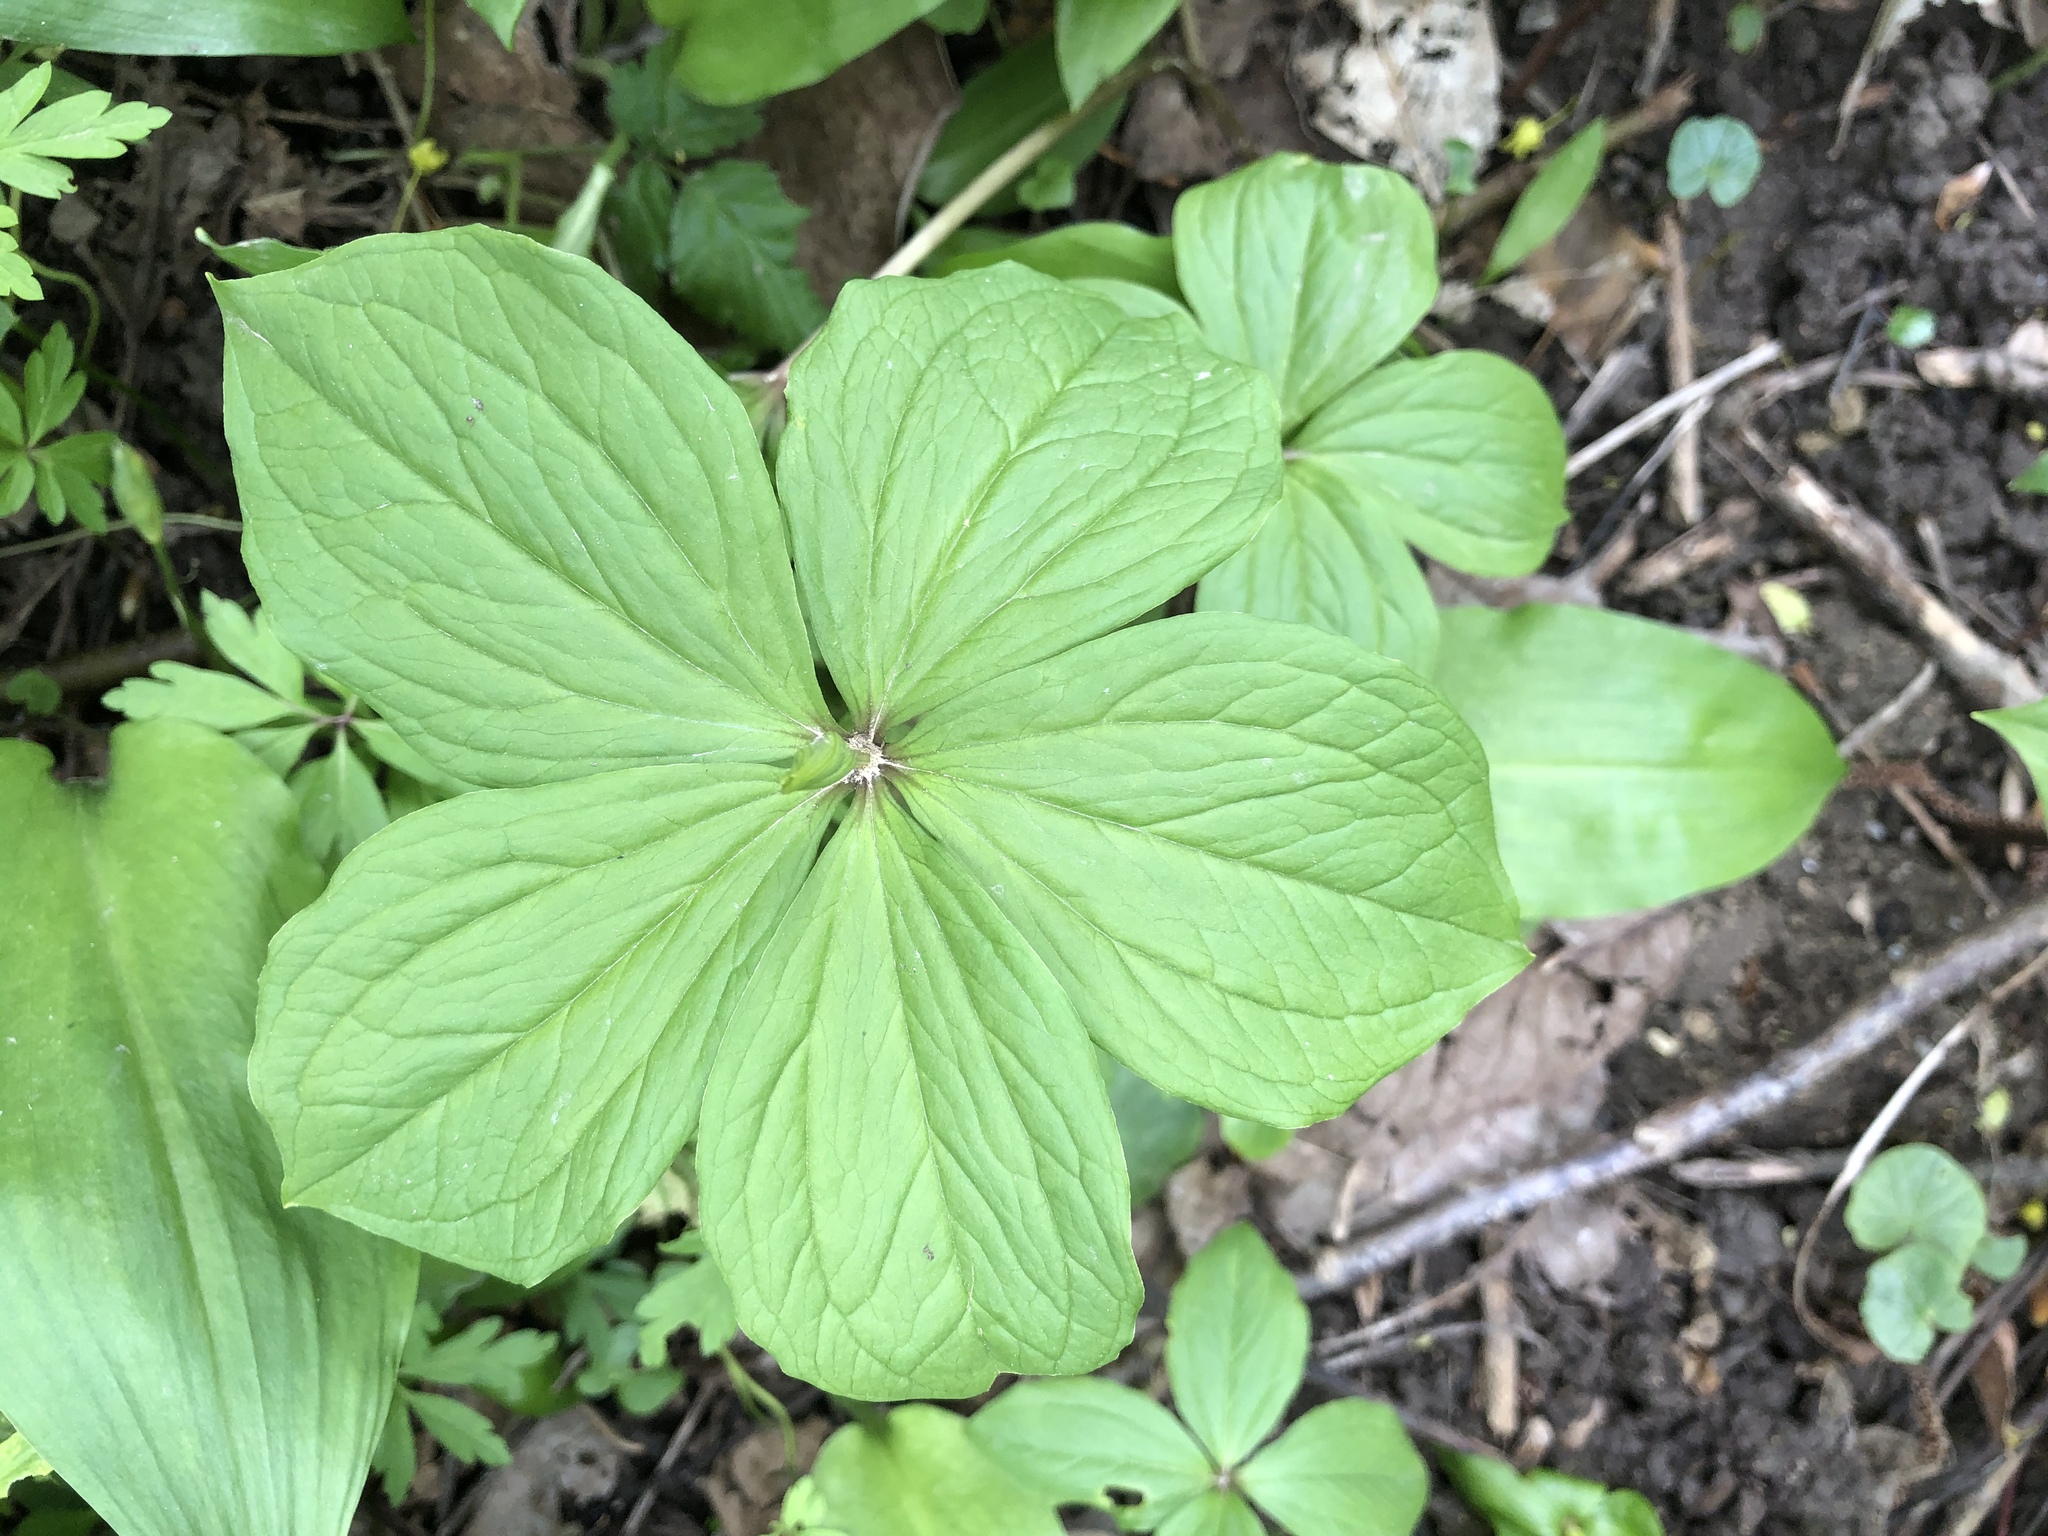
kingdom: Plantae
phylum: Tracheophyta
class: Liliopsida
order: Liliales
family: Melanthiaceae
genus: Paris
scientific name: Paris quadrifolia
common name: Herb-paris
